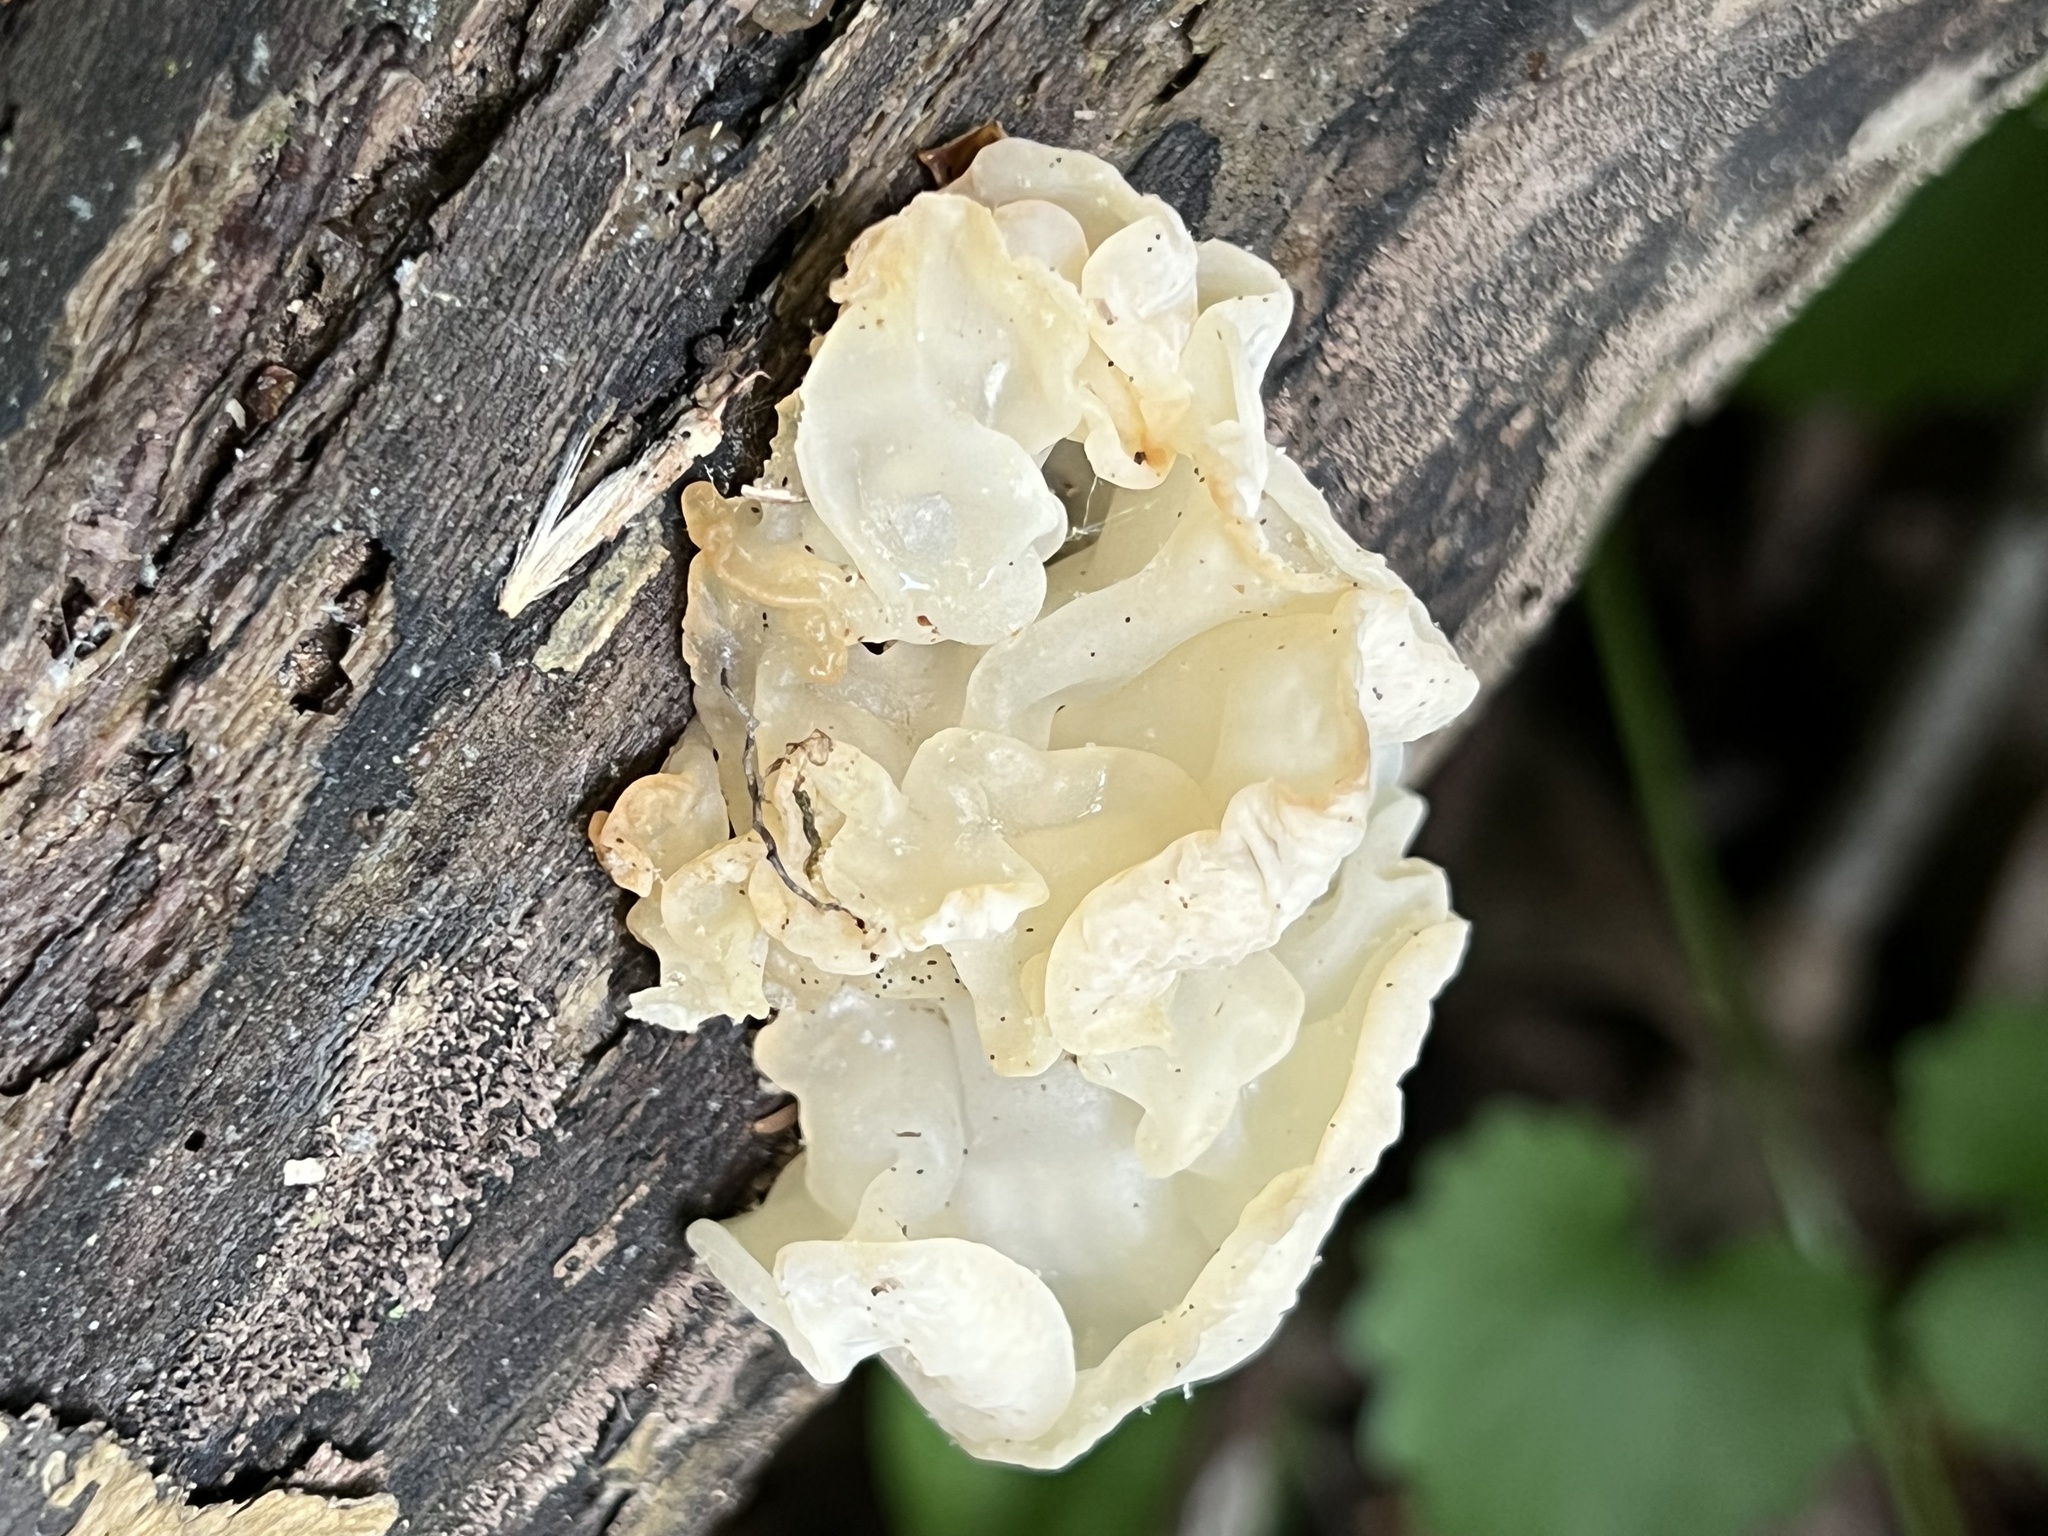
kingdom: Fungi
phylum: Basidiomycota
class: Agaricomycetes
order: Auriculariales
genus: Ductifera
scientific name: Ductifera pululahuana
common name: White jelly fungus
